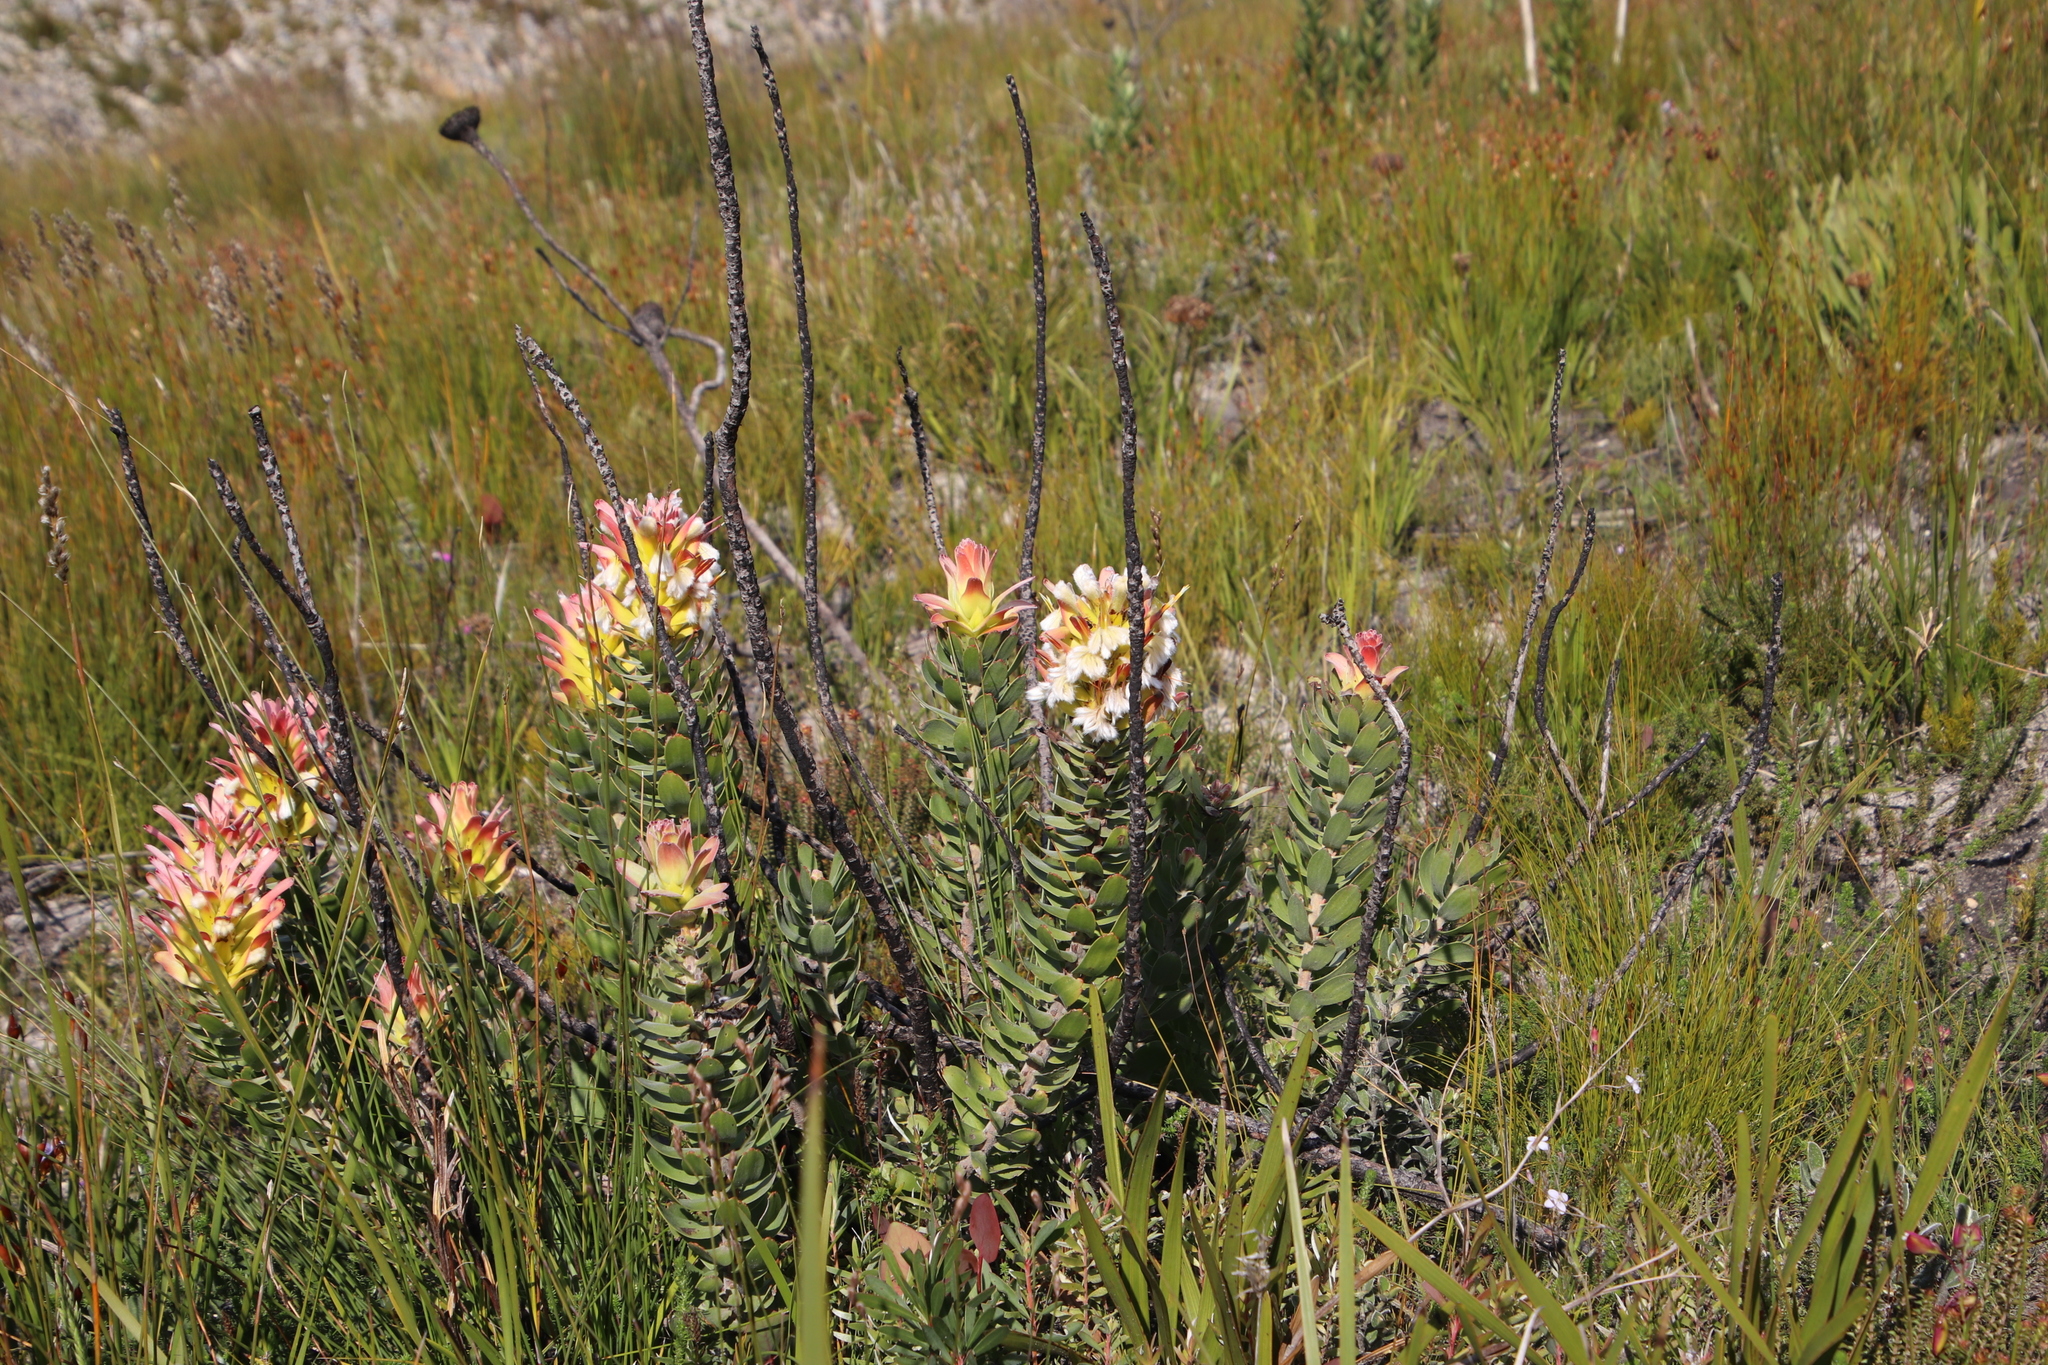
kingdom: Plantae
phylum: Tracheophyta
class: Magnoliopsida
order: Proteales
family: Proteaceae
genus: Mimetes
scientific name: Mimetes cucullatus
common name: Common pagoda
